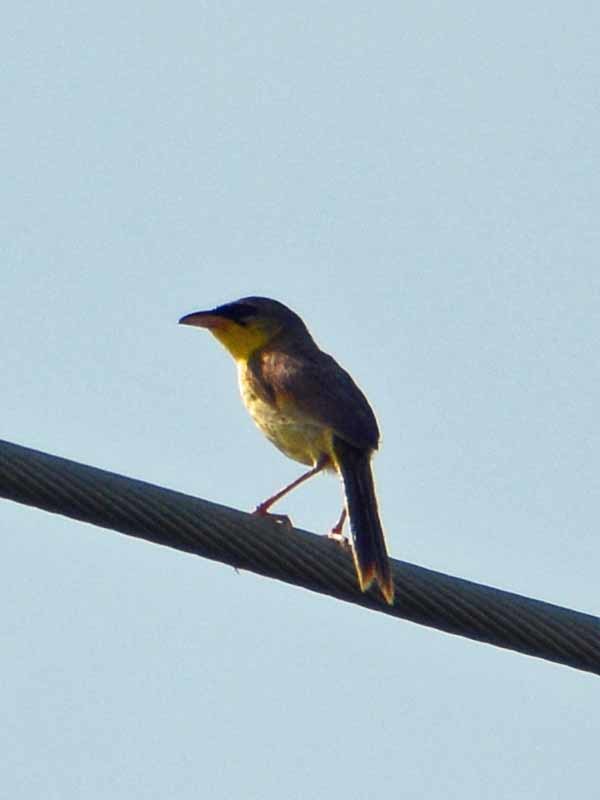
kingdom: Animalia
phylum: Chordata
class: Aves
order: Passeriformes
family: Parulidae
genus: Geothlypis
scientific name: Geothlypis poliocephala
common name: Gray-crowned yellowthroat
